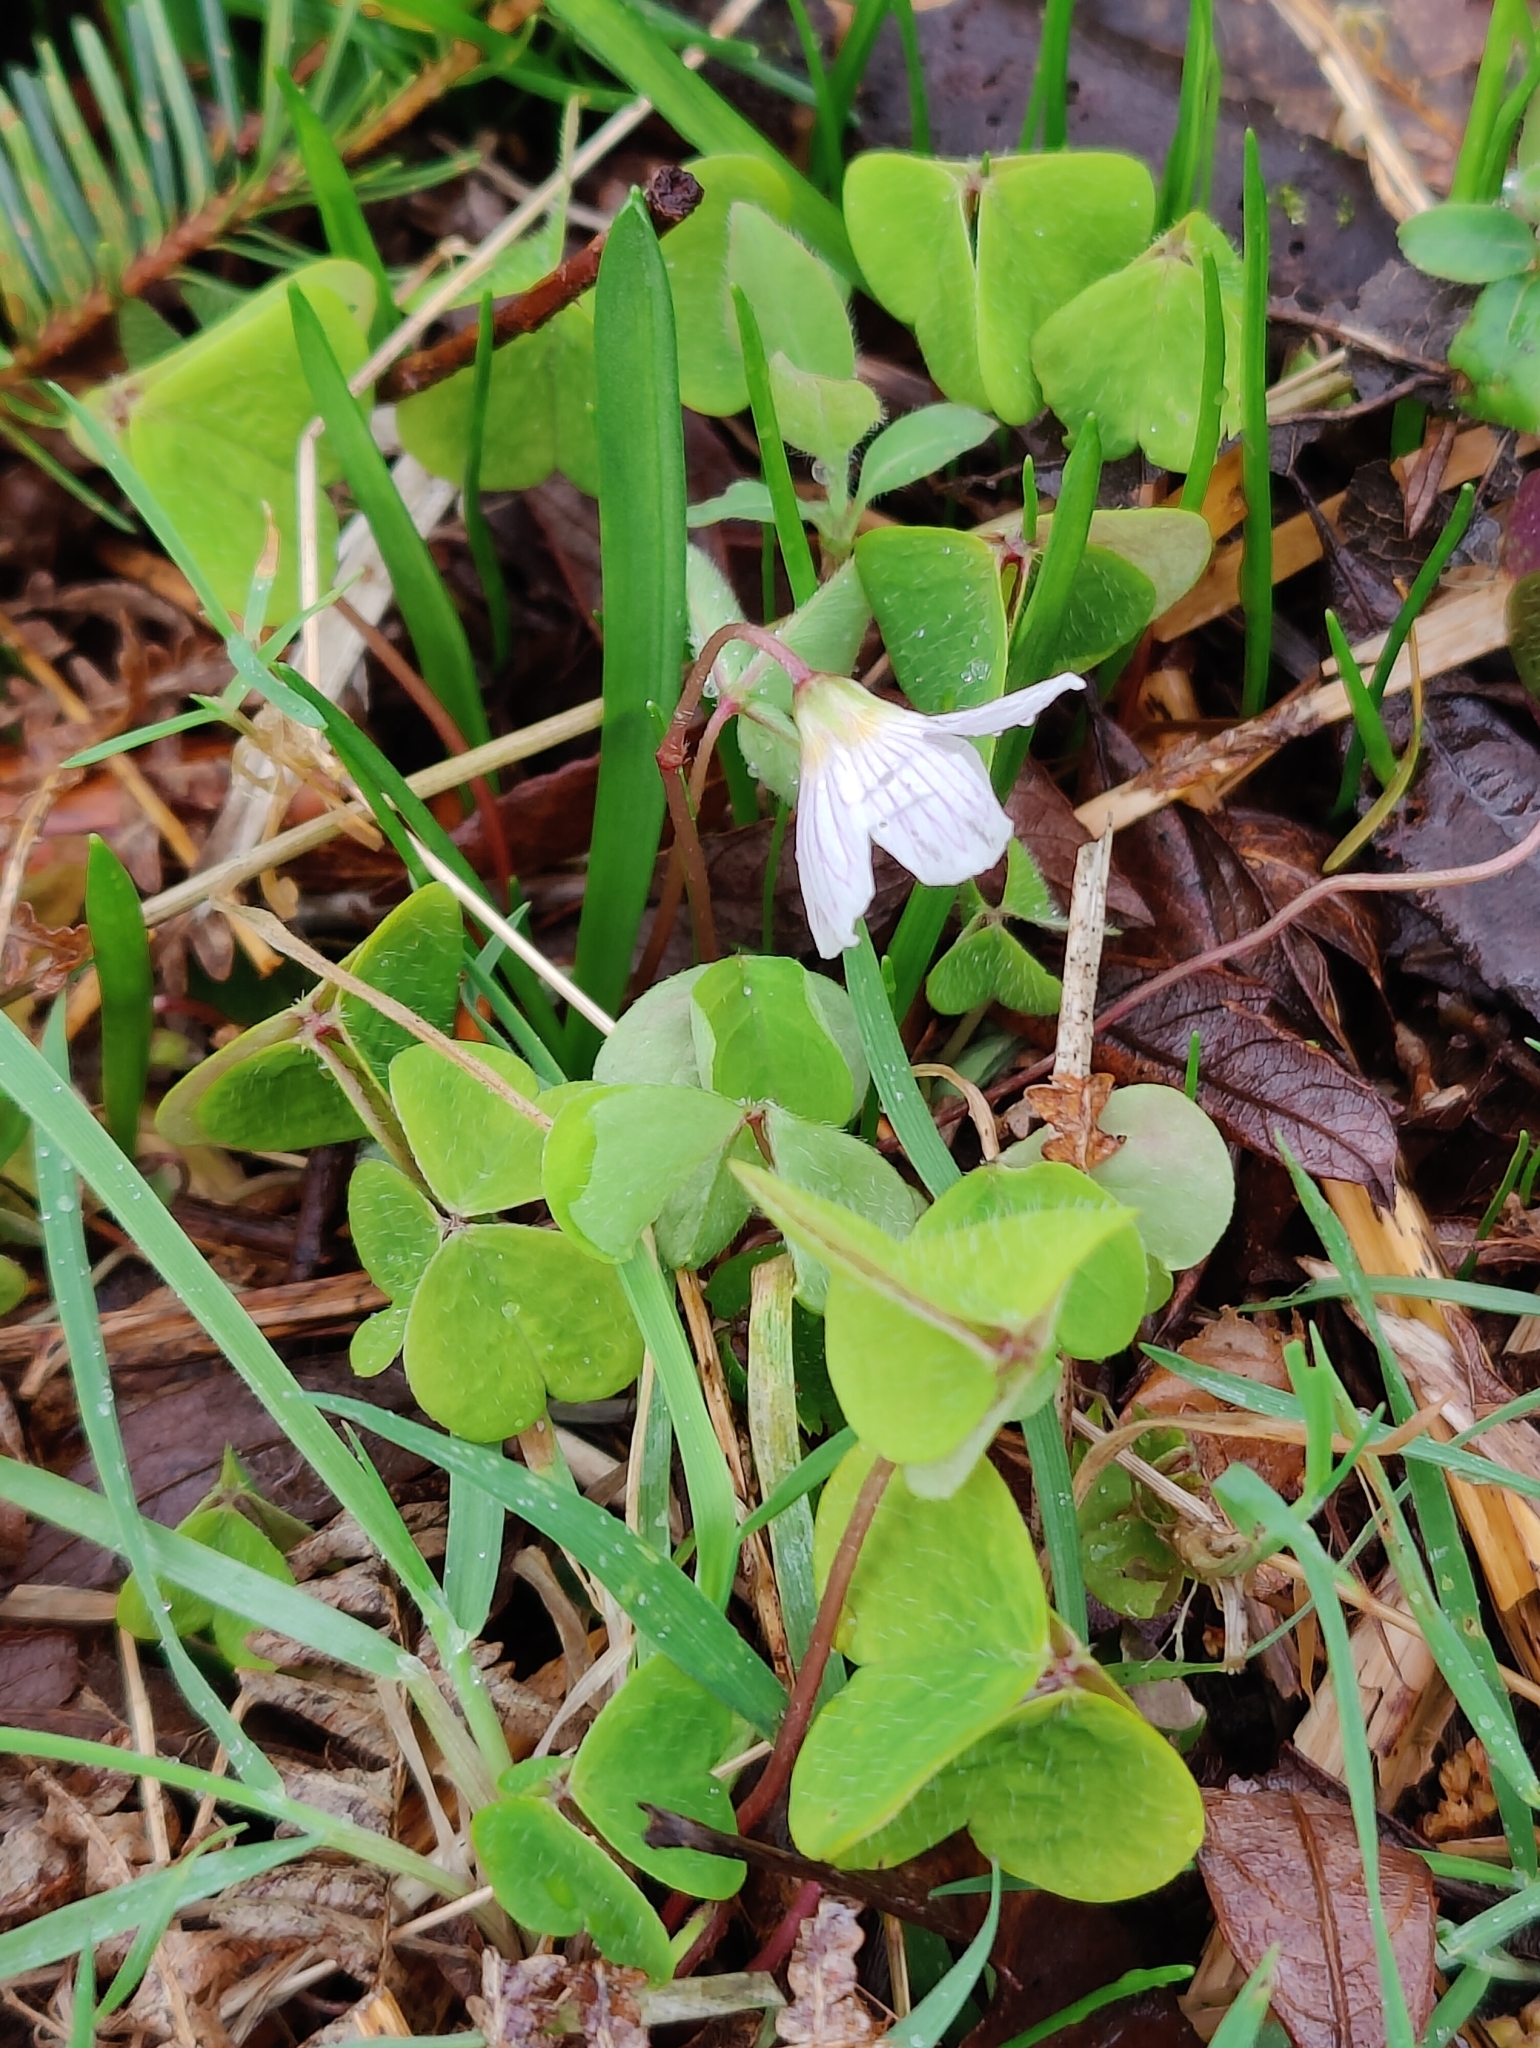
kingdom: Plantae
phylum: Tracheophyta
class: Magnoliopsida
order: Oxalidales
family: Oxalidaceae
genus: Oxalis
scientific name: Oxalis acetosella
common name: Wood-sorrel
